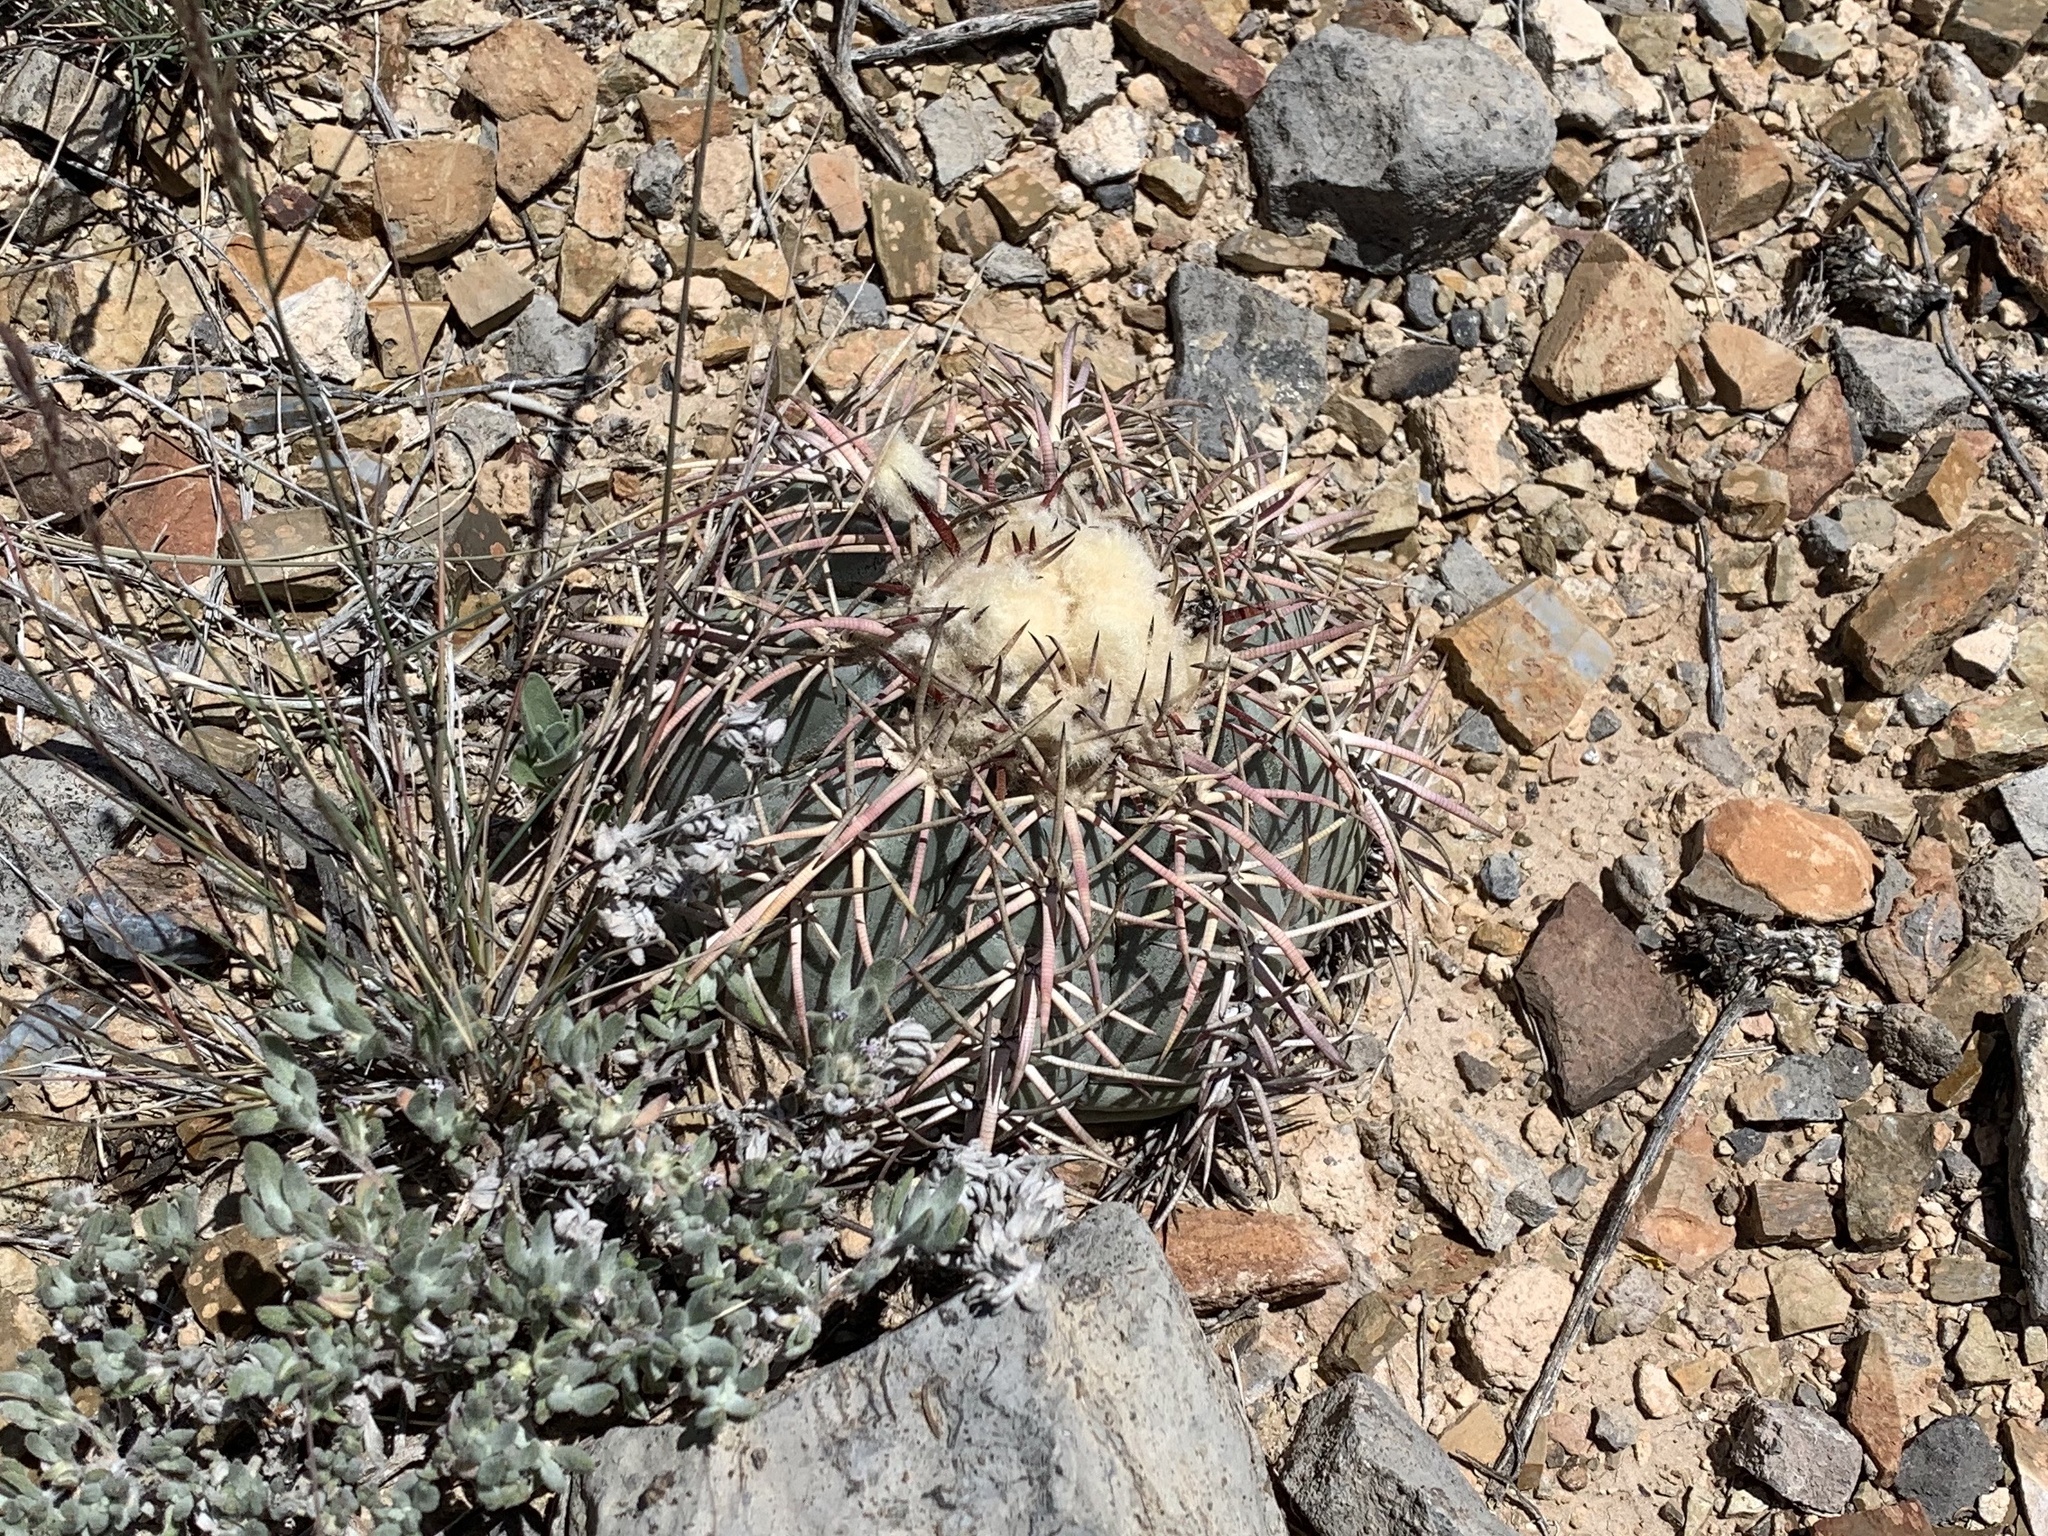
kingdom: Plantae
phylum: Tracheophyta
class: Magnoliopsida
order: Caryophyllales
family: Cactaceae
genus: Echinocactus
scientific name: Echinocactus horizonthalonius
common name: Devilshead
